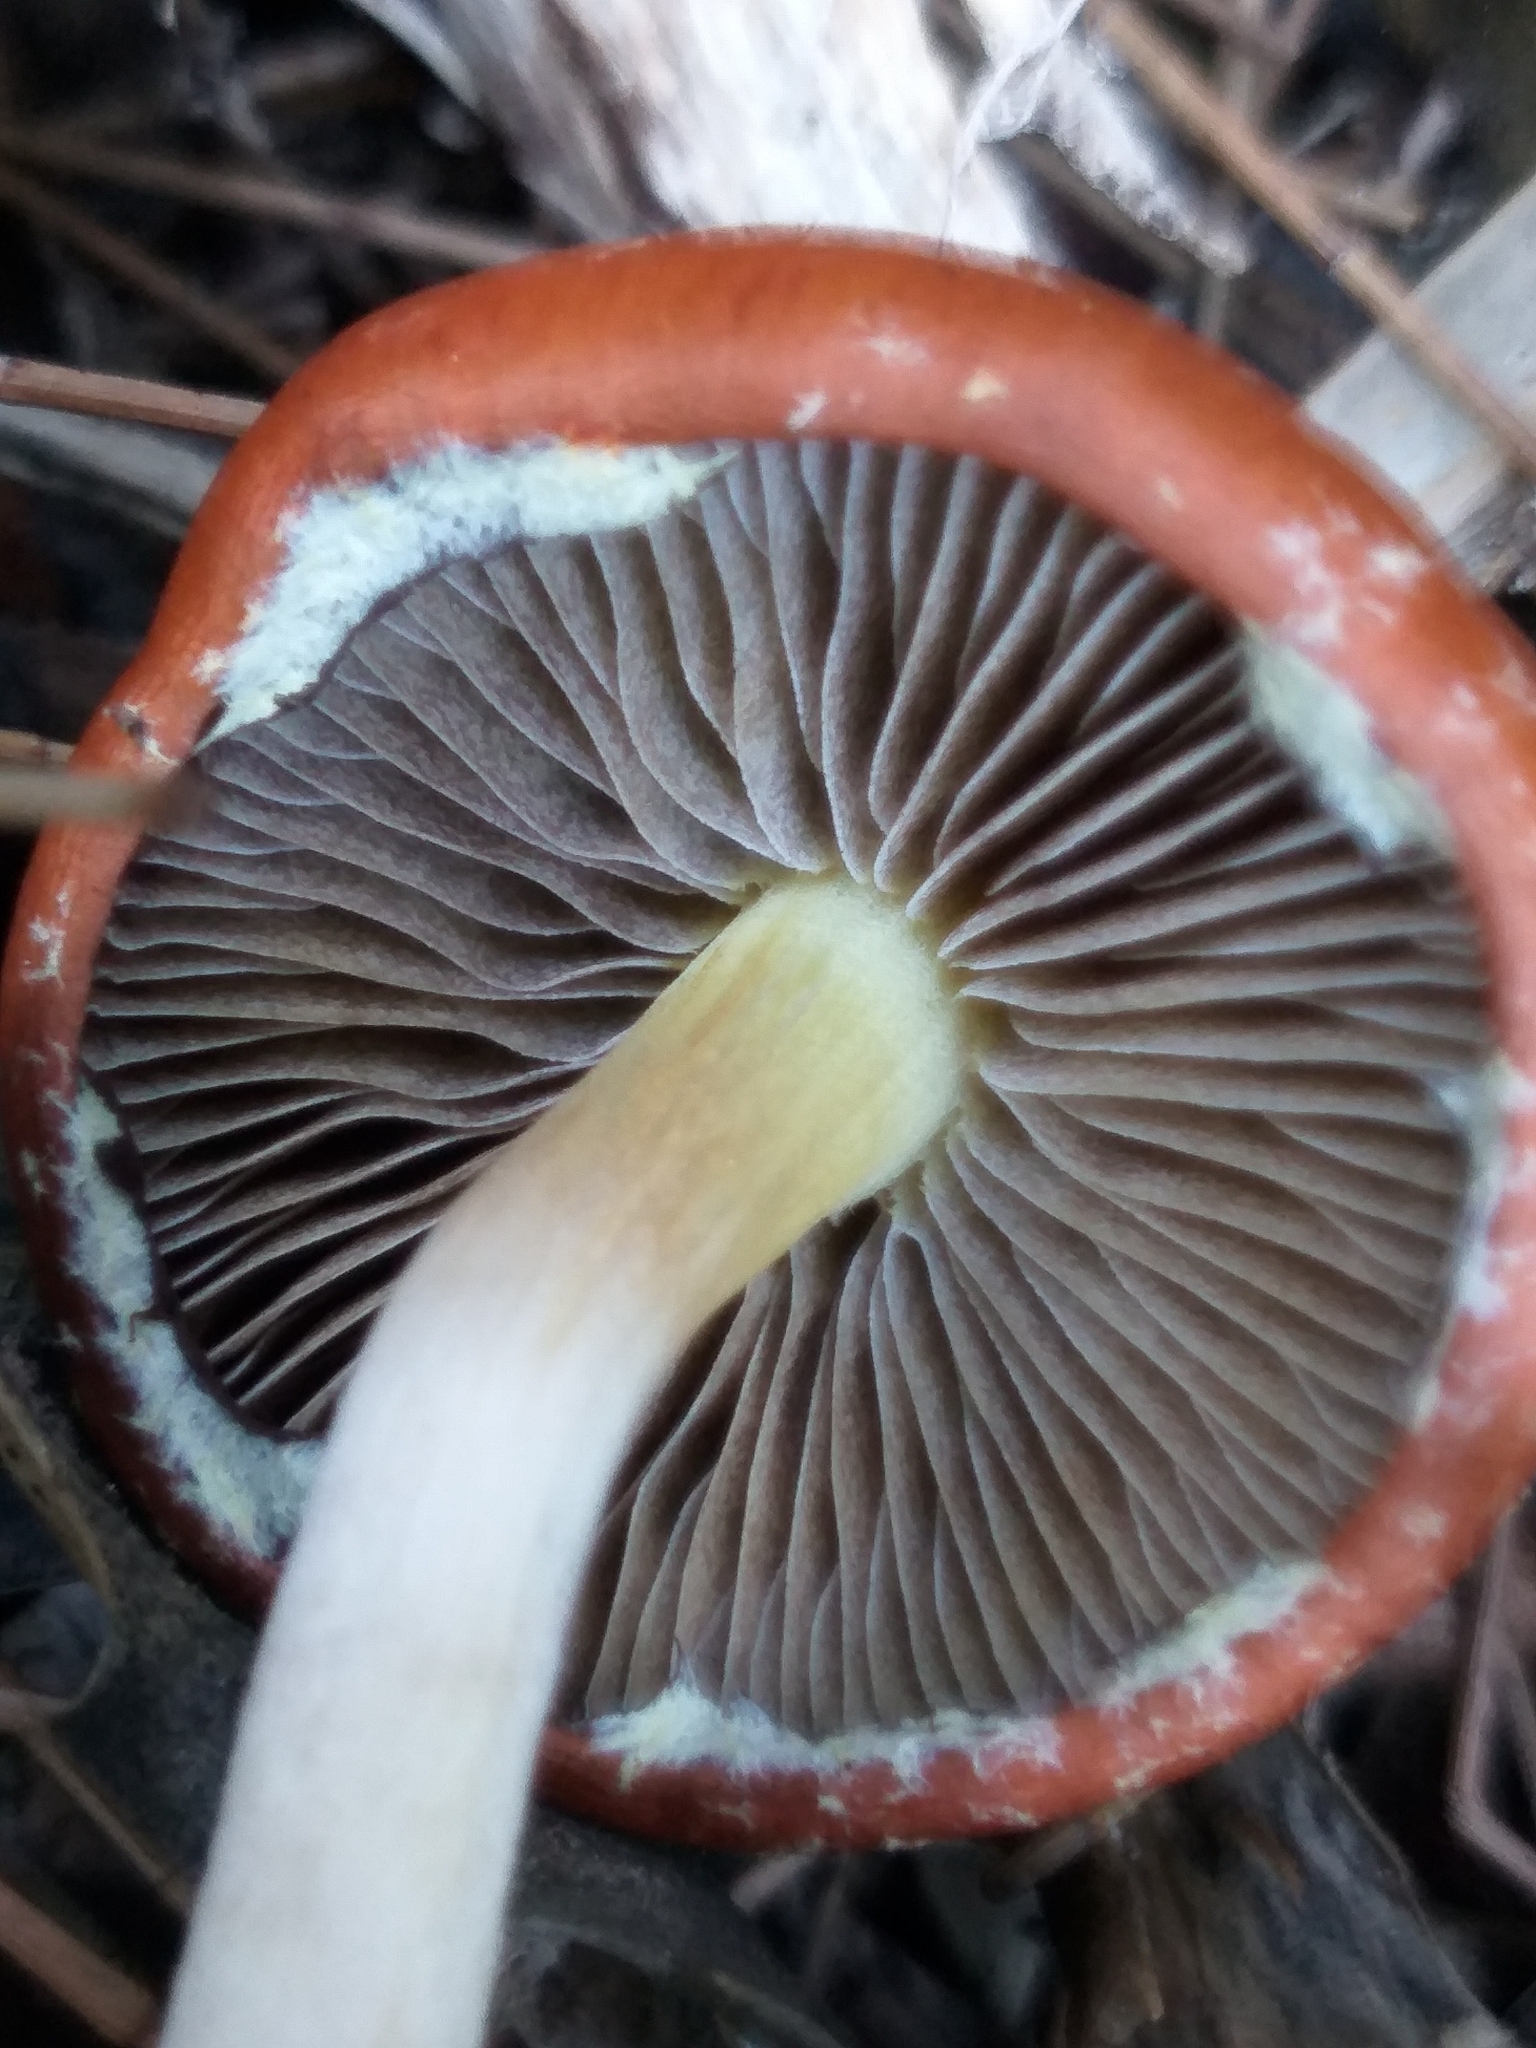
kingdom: Fungi
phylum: Basidiomycota
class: Agaricomycetes
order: Agaricales
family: Strophariaceae
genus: Leratiomyces
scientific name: Leratiomyces ceres
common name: Redlead roundhead
